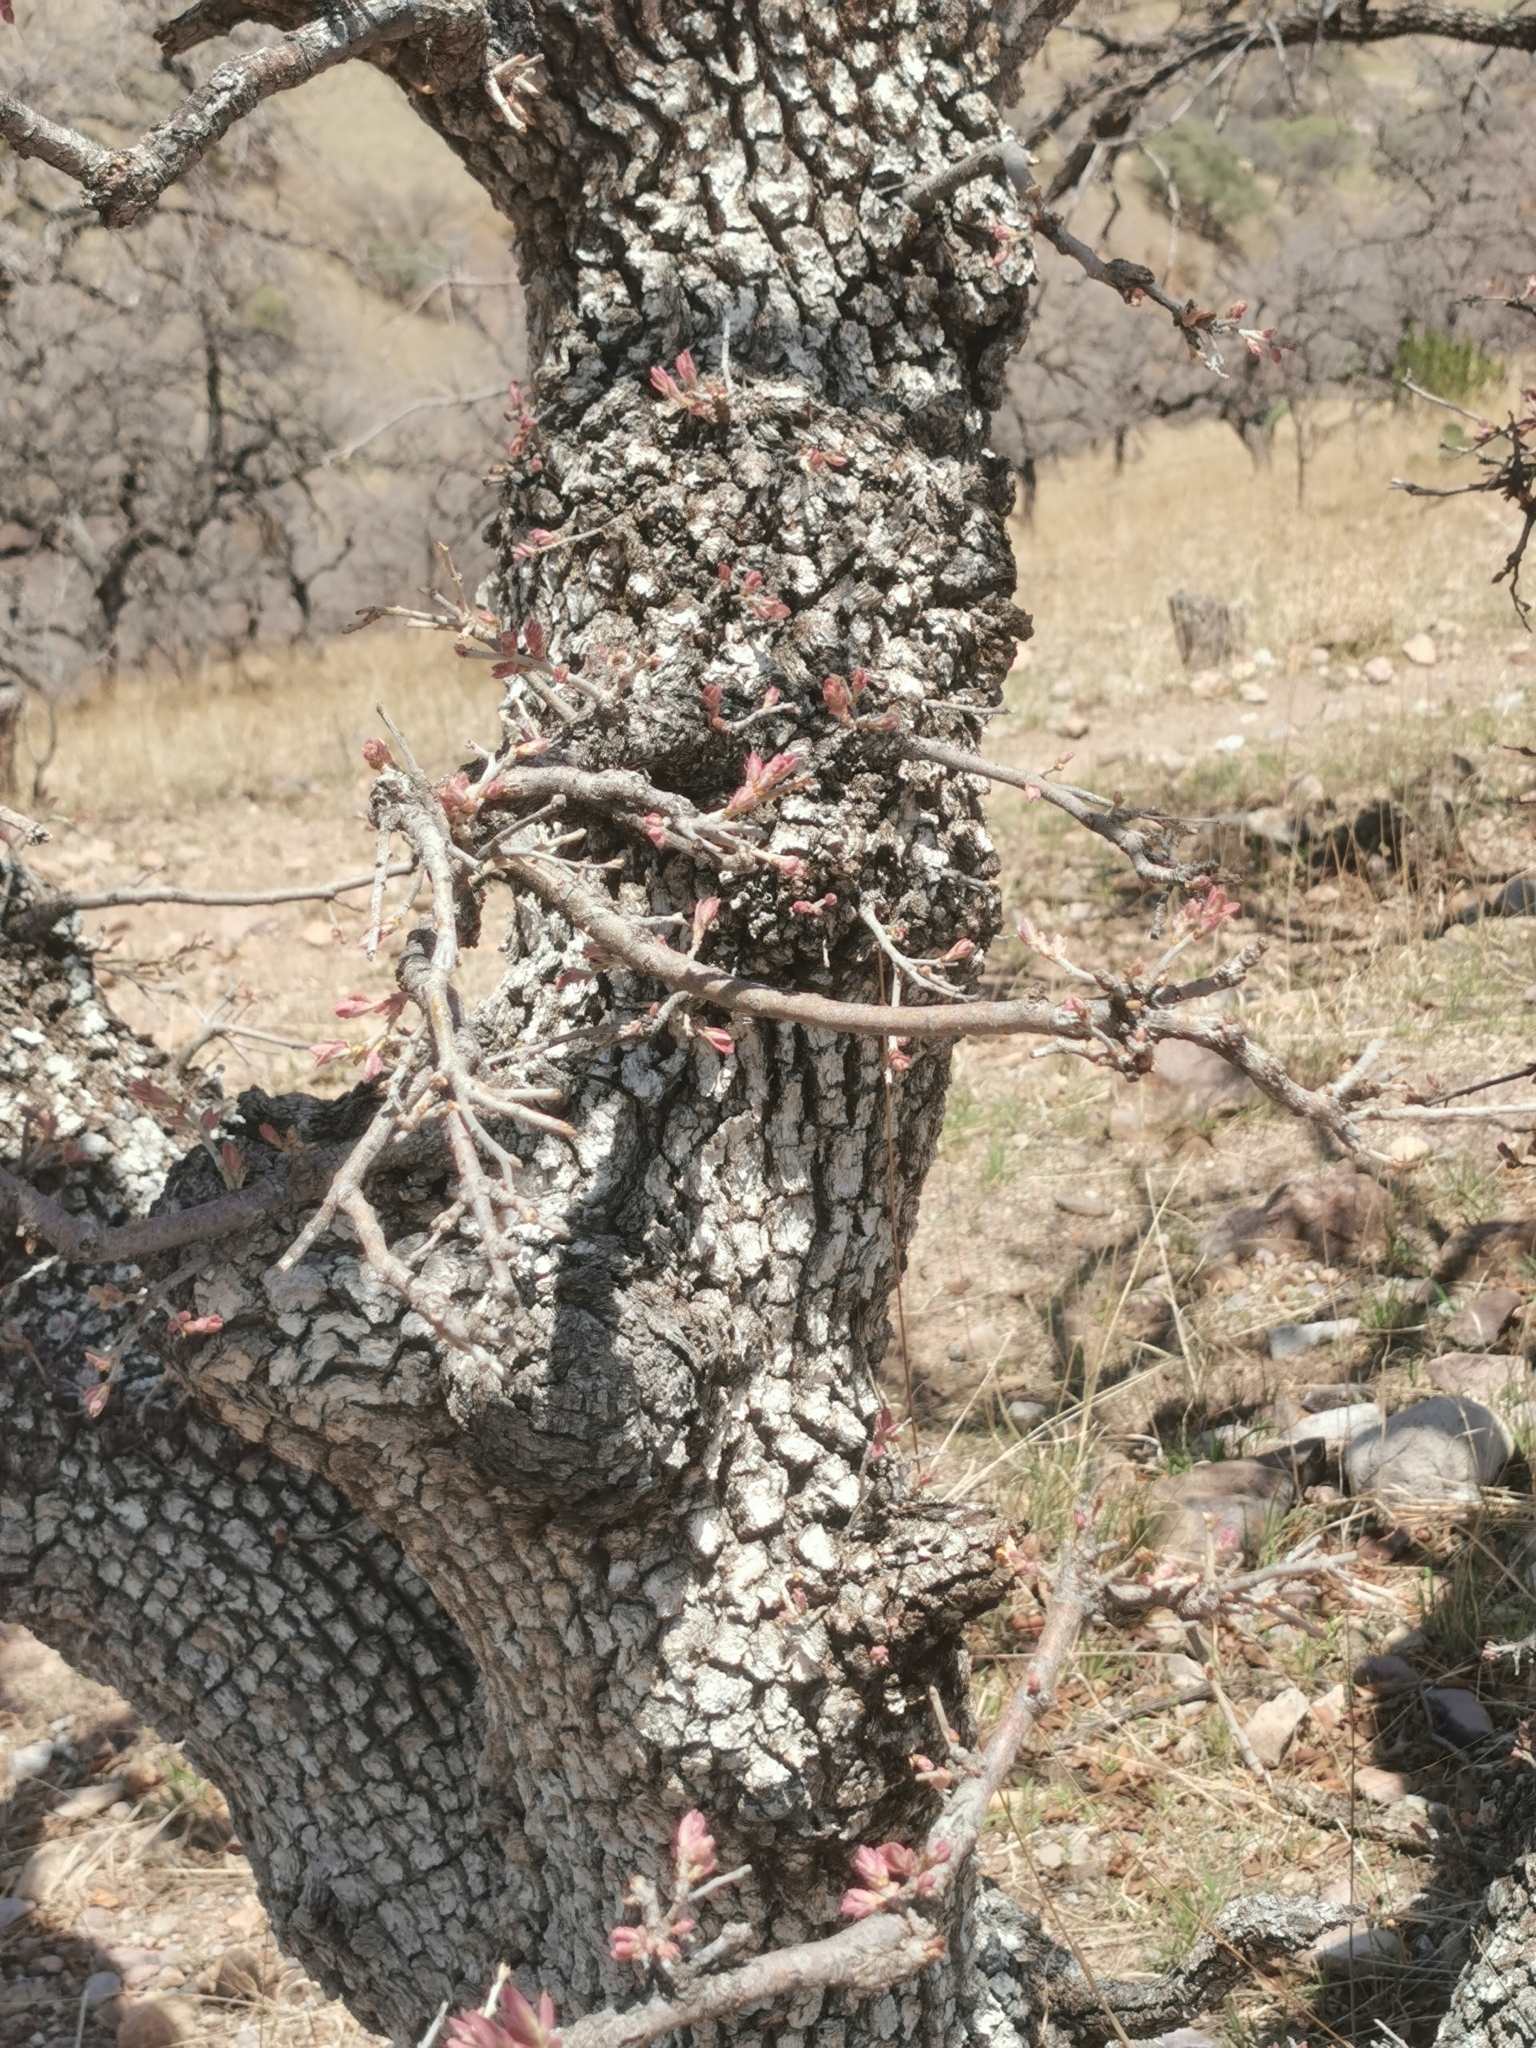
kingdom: Plantae
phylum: Tracheophyta
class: Magnoliopsida
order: Fagales
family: Fagaceae
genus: Quercus
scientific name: Quercus grisea
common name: Gray oak
